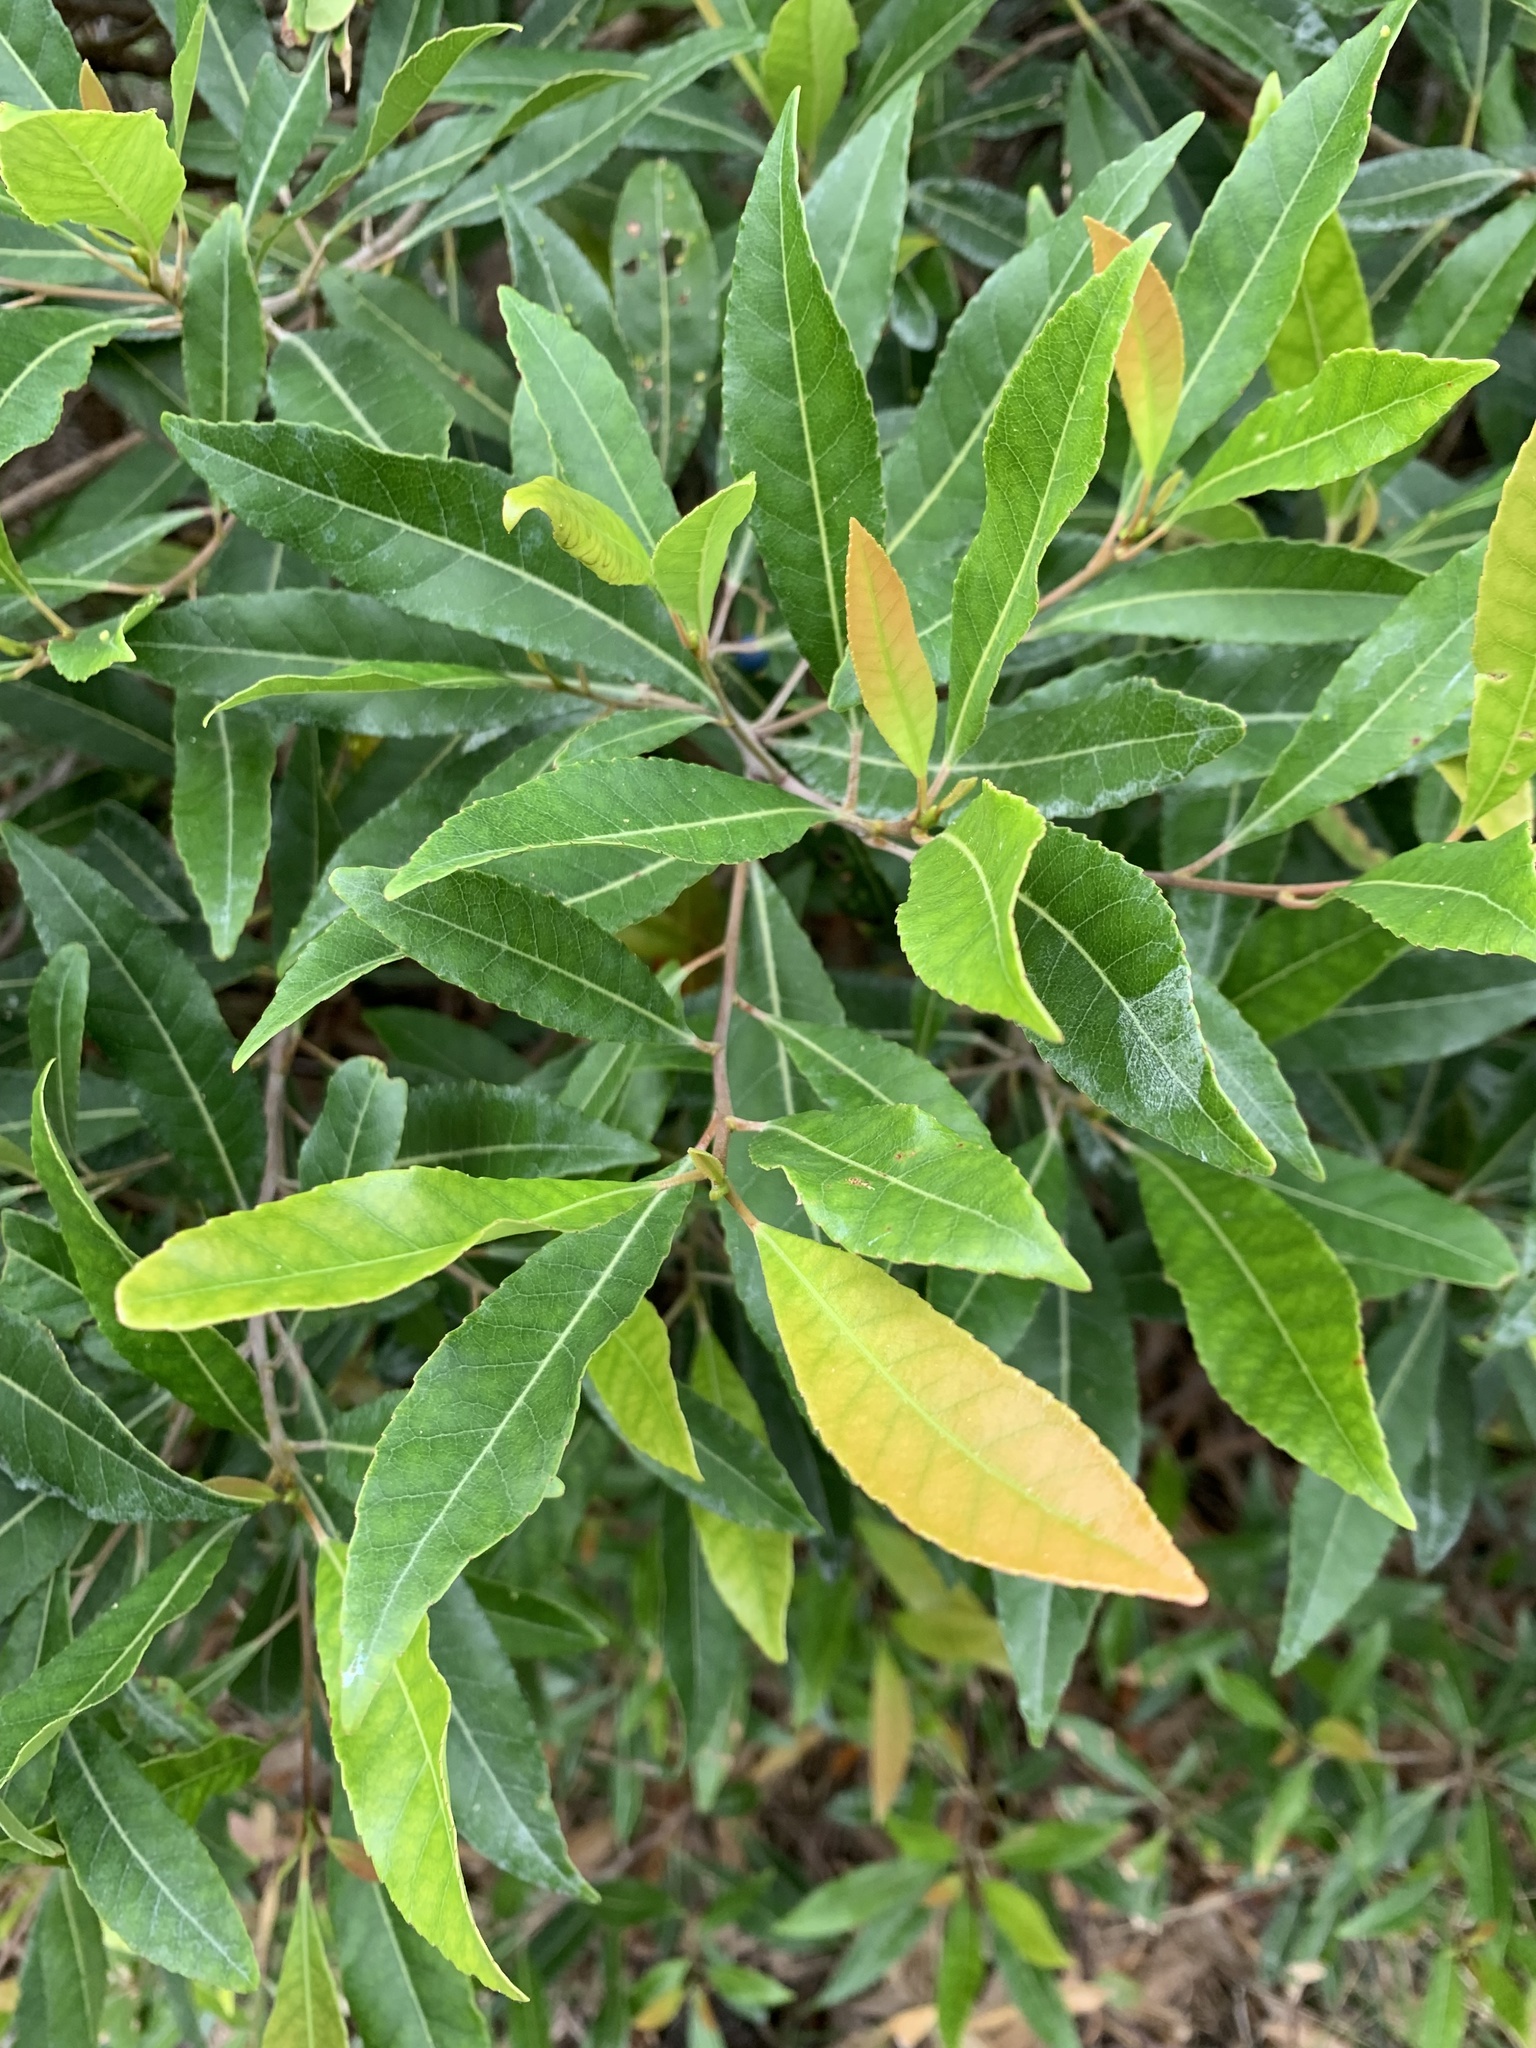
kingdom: Plantae
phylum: Tracheophyta
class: Magnoliopsida
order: Oxalidales
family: Elaeocarpaceae
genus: Elaeocarpus
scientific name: Elaeocarpus reticulatus
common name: Ash quandong
